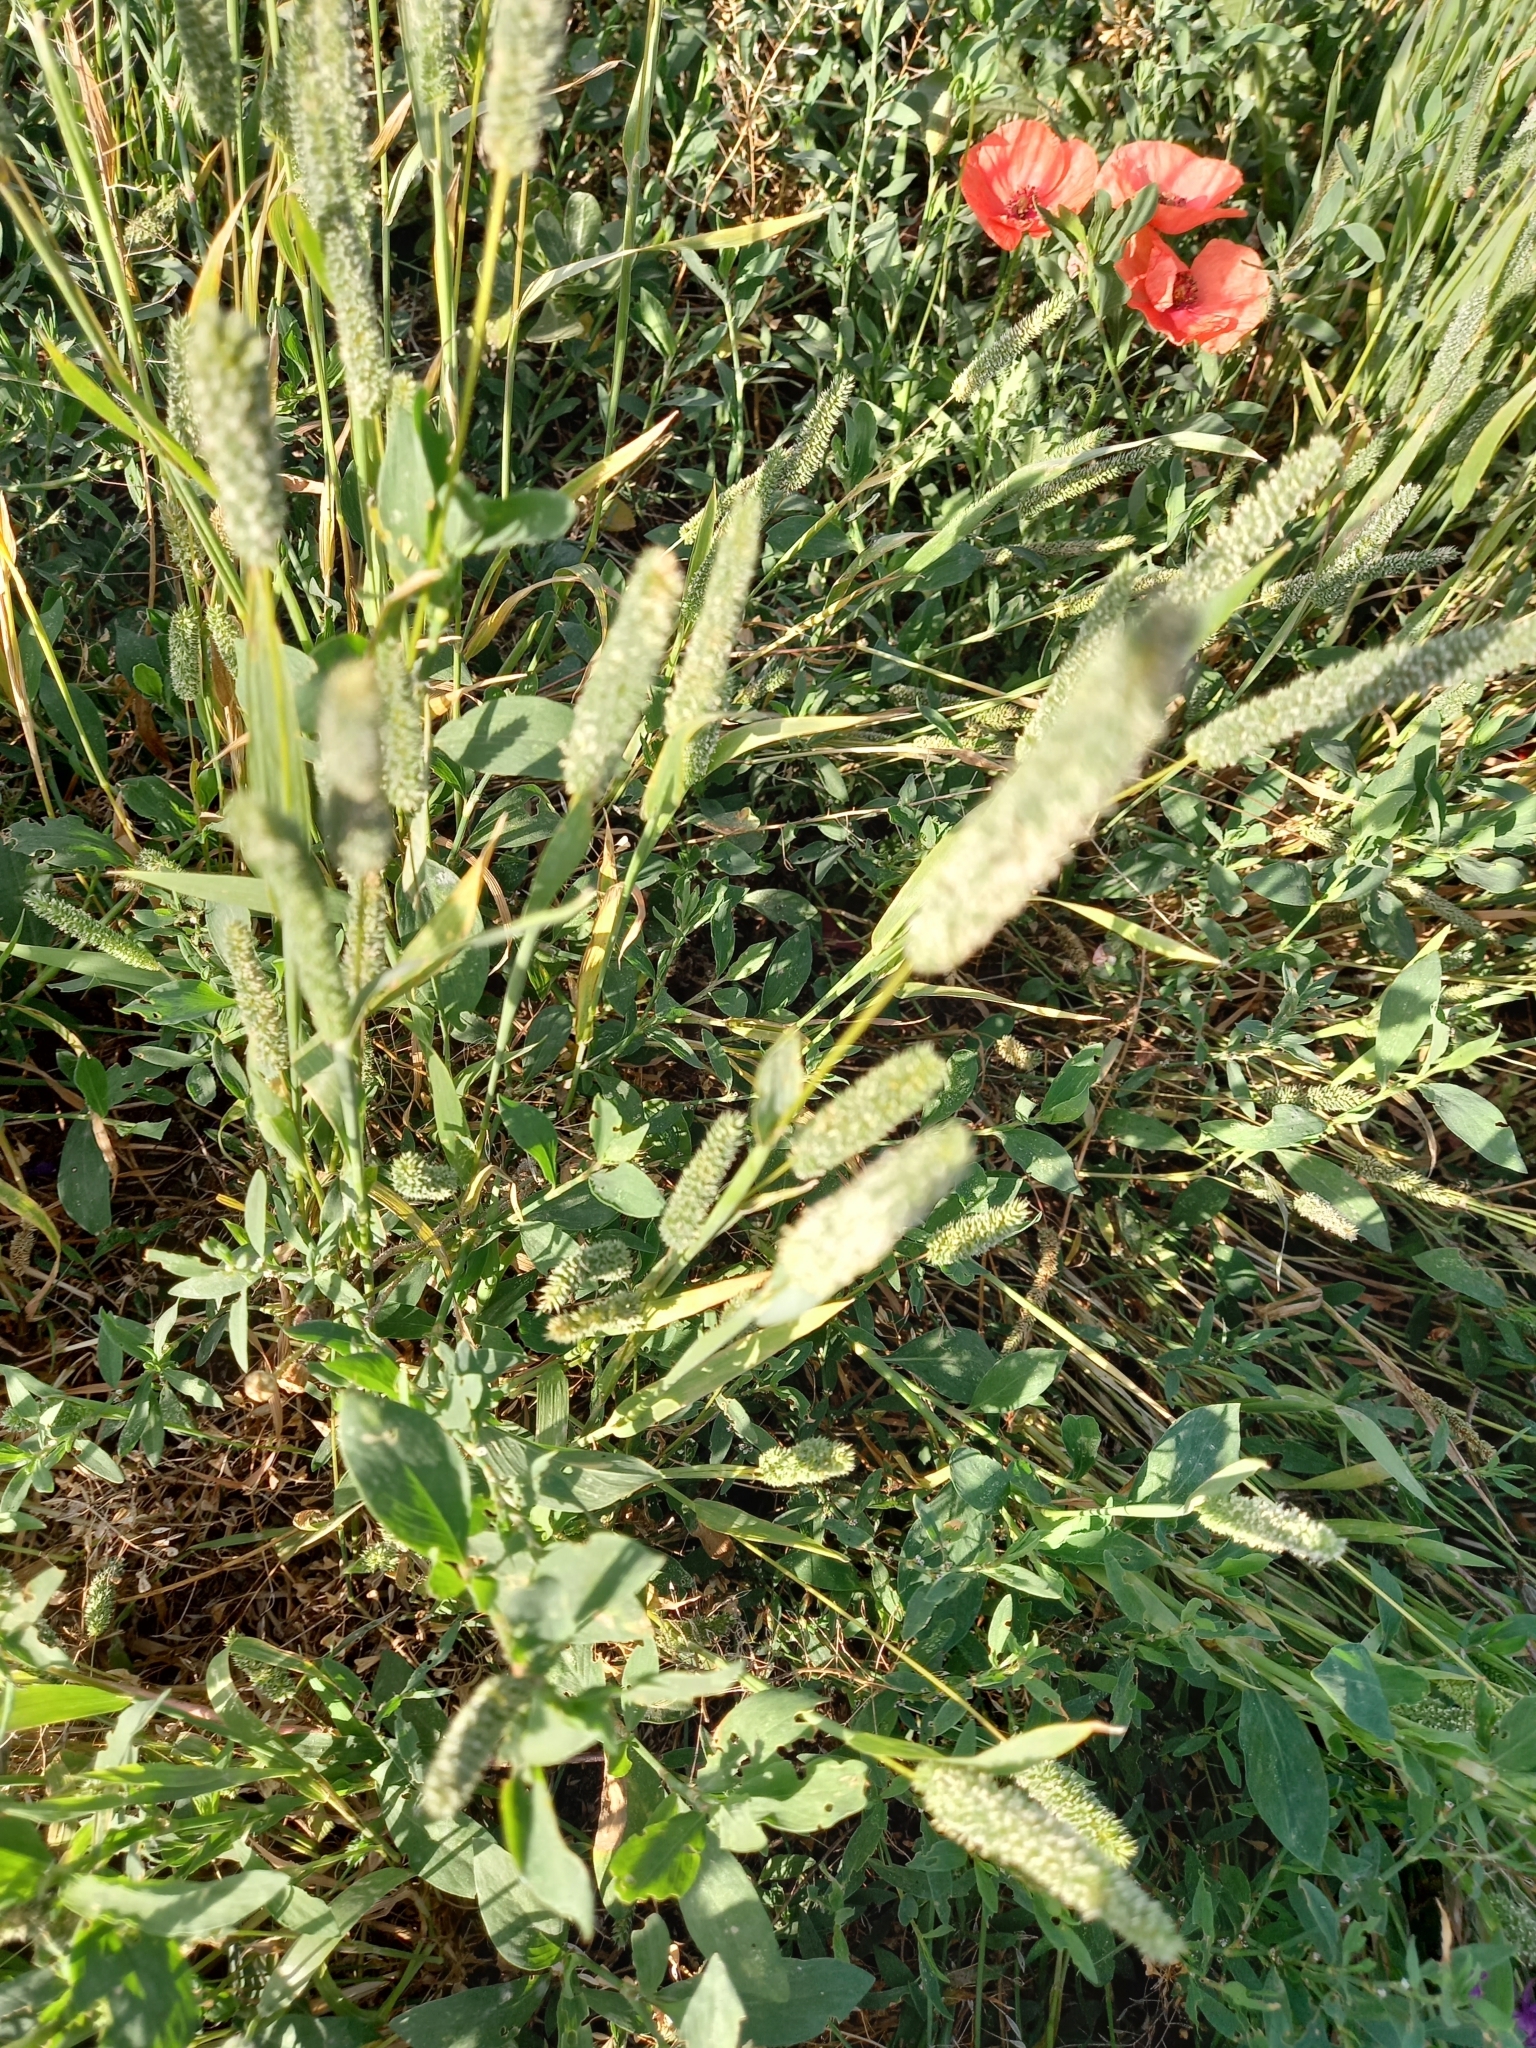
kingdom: Plantae
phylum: Tracheophyta
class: Liliopsida
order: Poales
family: Poaceae
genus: Phleum
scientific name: Phleum phleoides
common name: Purple-stem cat's-tail
